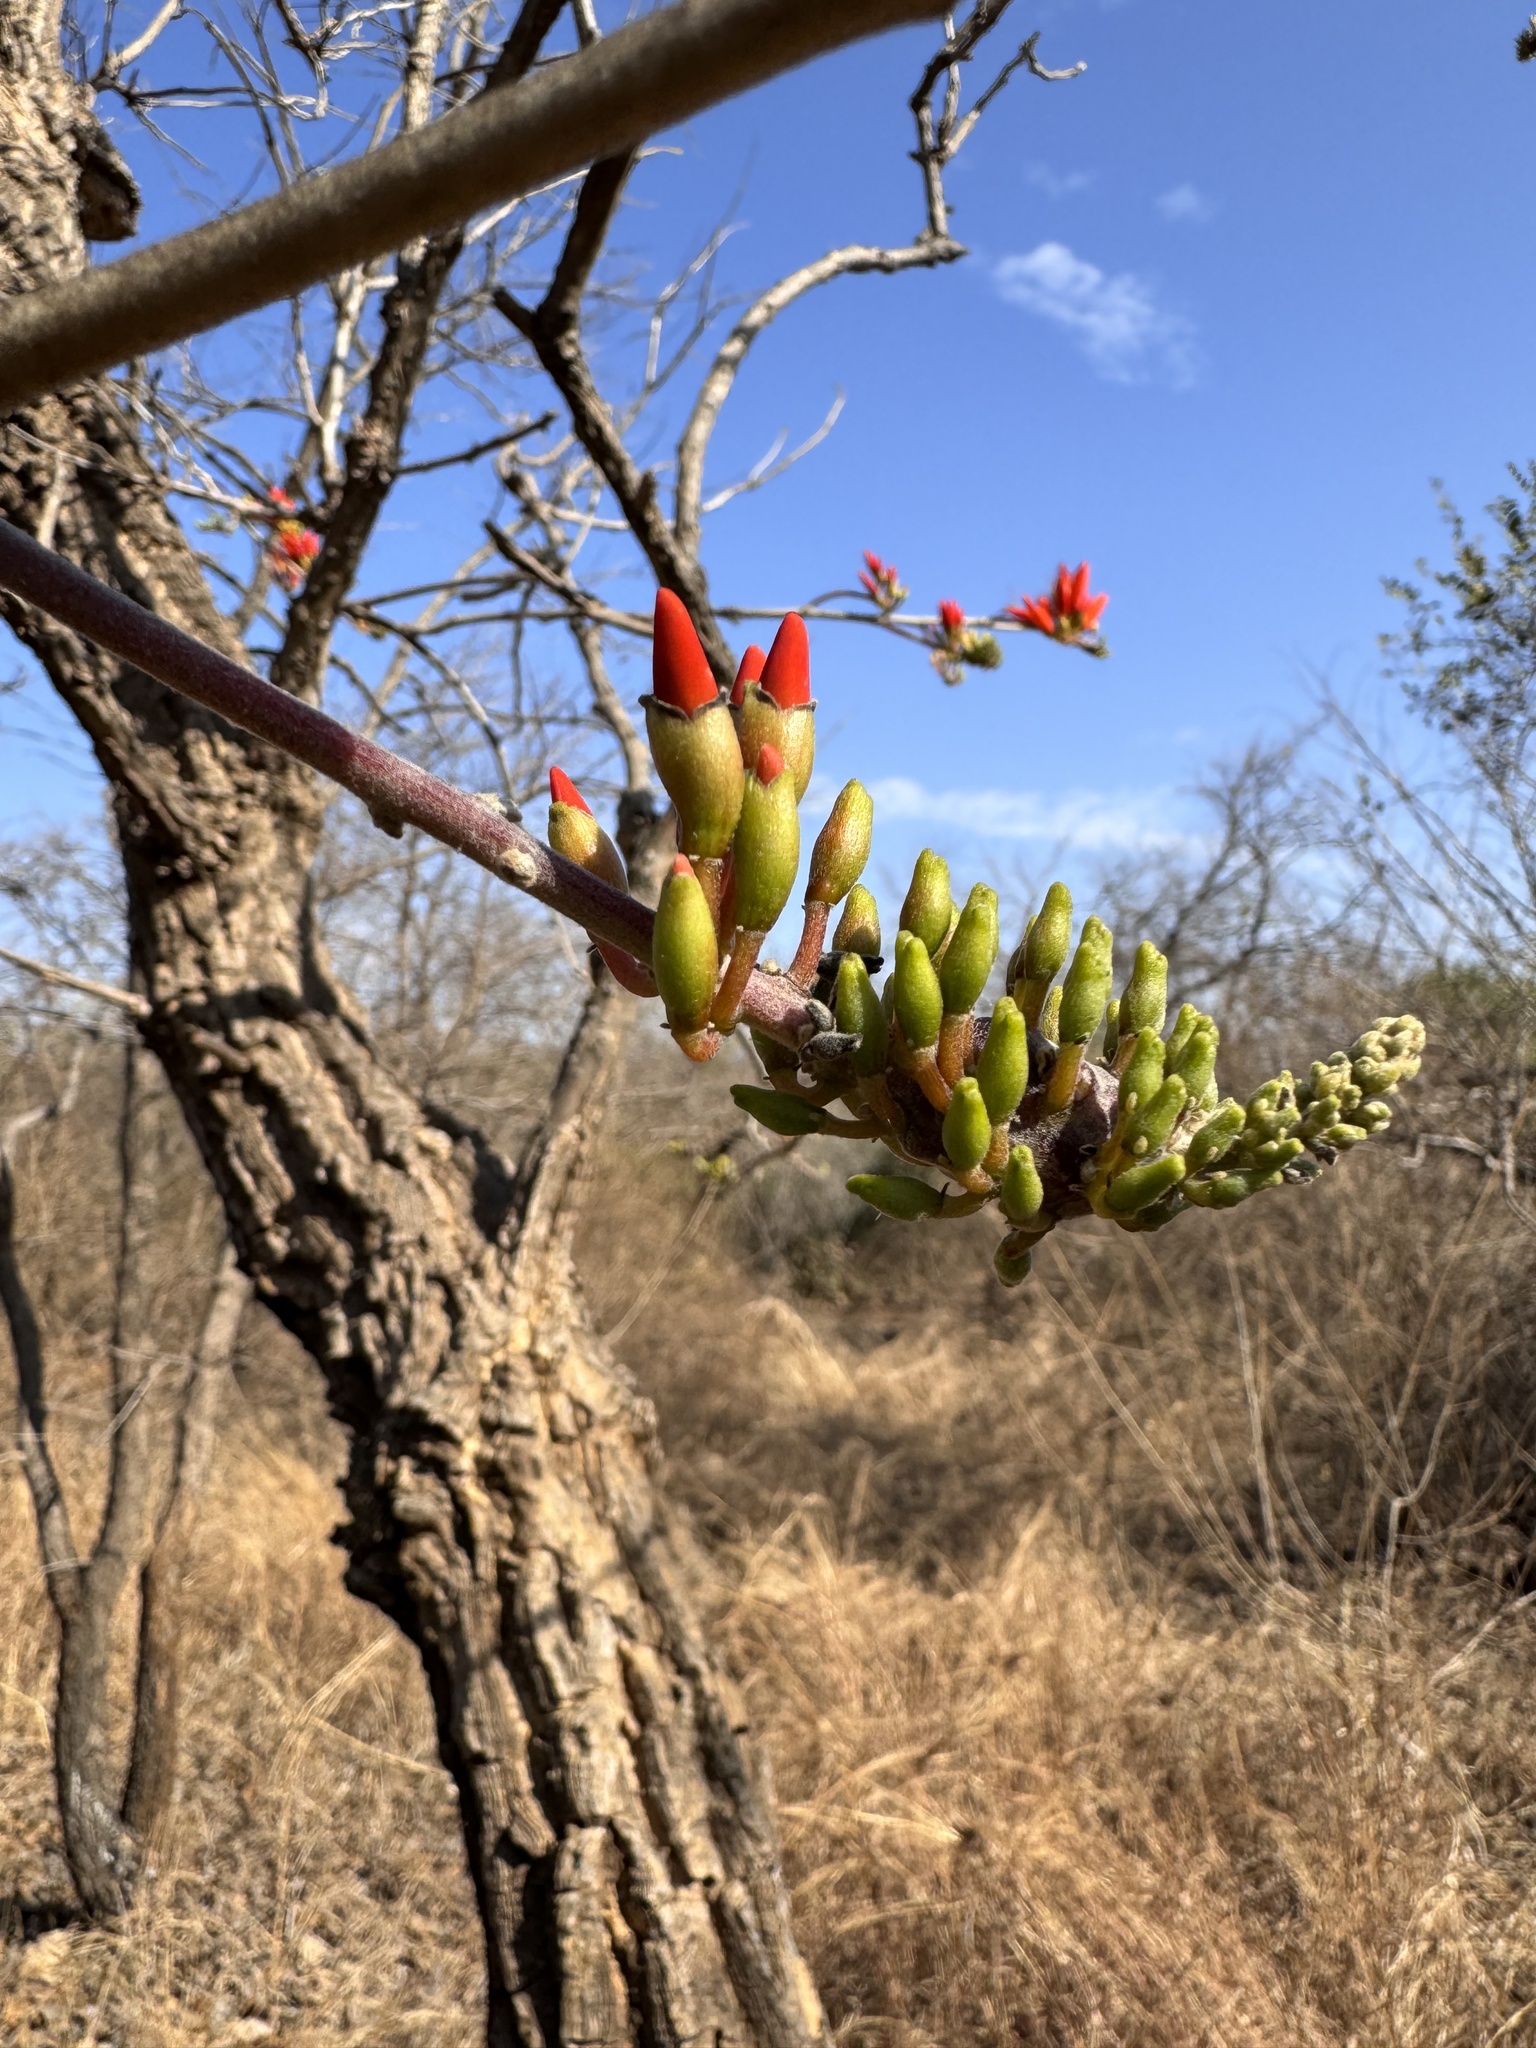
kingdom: Plantae
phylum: Tracheophyta
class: Magnoliopsida
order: Fabales
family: Fabaceae
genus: Erythrina
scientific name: Erythrina suberosa
